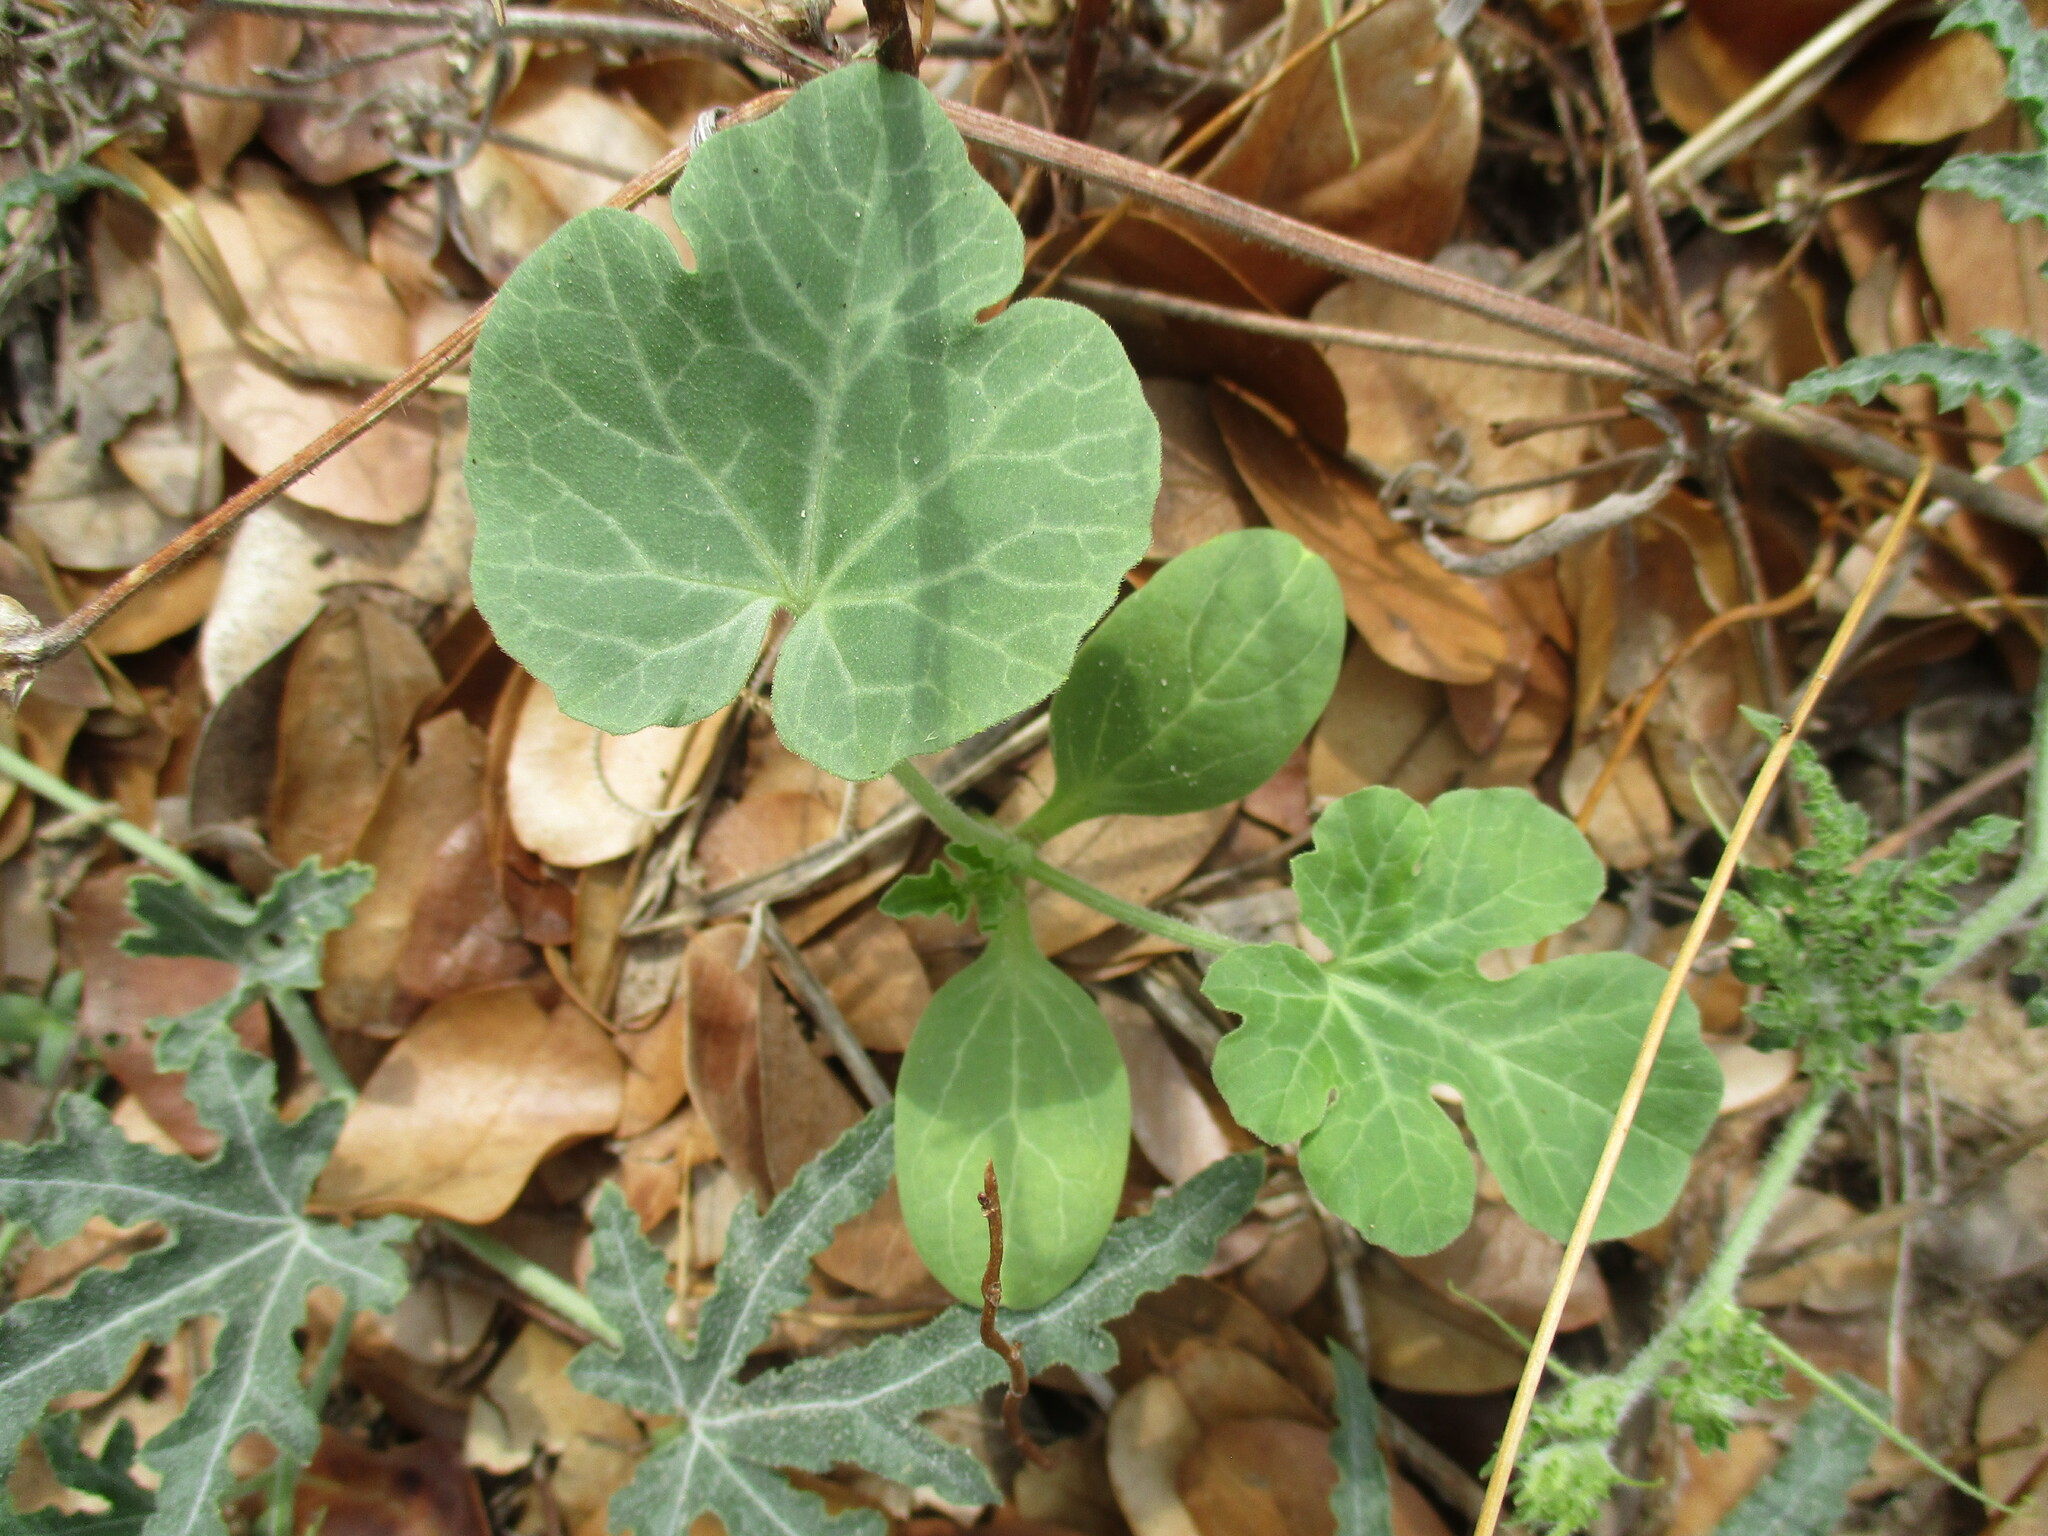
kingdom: Plantae
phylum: Tracheophyta
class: Magnoliopsida
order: Cucurbitales
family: Cucurbitaceae
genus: Citrullus
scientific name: Citrullus amarus
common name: Fodder-melon
